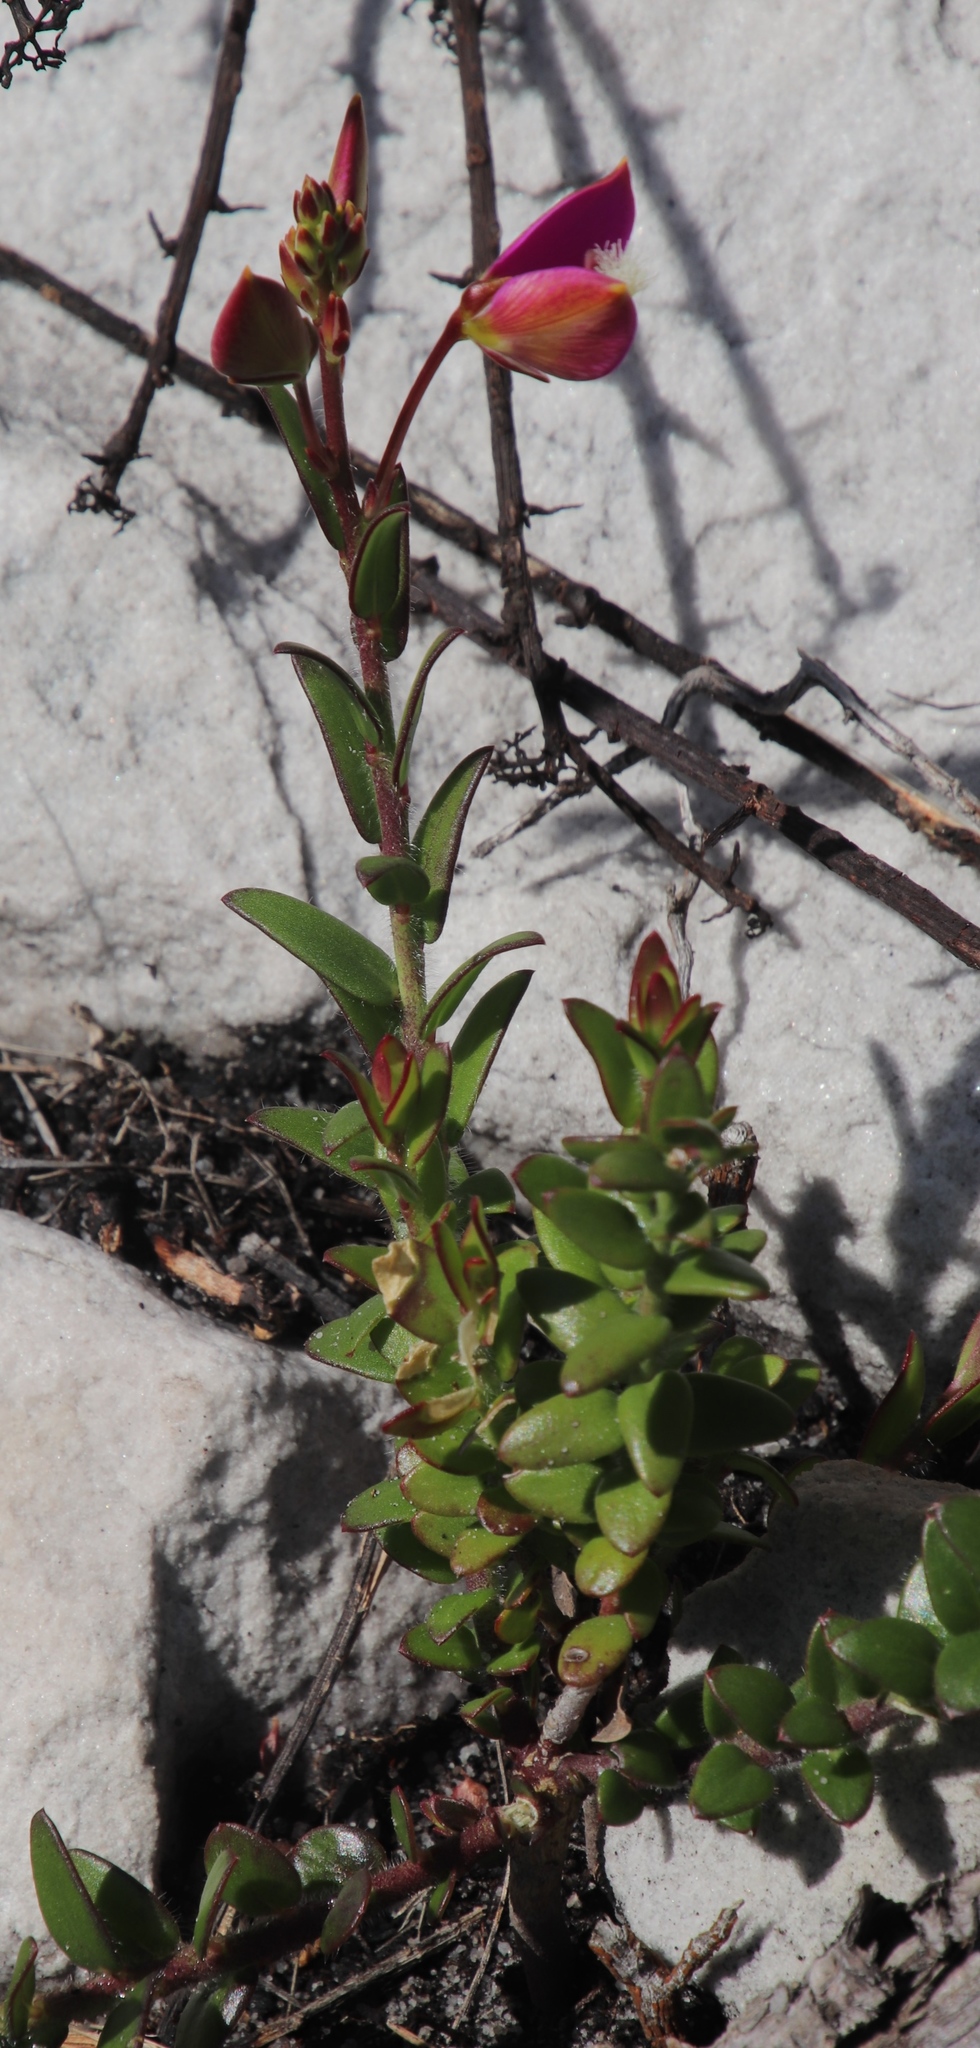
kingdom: Plantae
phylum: Tracheophyta
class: Magnoliopsida
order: Fabales
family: Polygalaceae
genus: Polygala
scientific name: Polygala bracteolata
